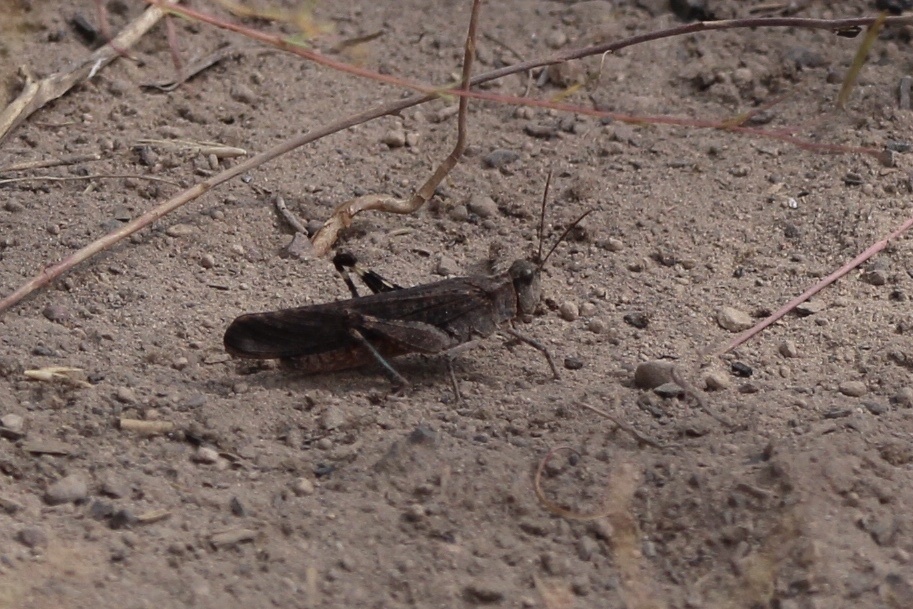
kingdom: Animalia
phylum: Arthropoda
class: Insecta
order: Orthoptera
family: Acrididae
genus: Trimerotropis
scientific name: Trimerotropis verruculata
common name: Crackling forest grasshopper
